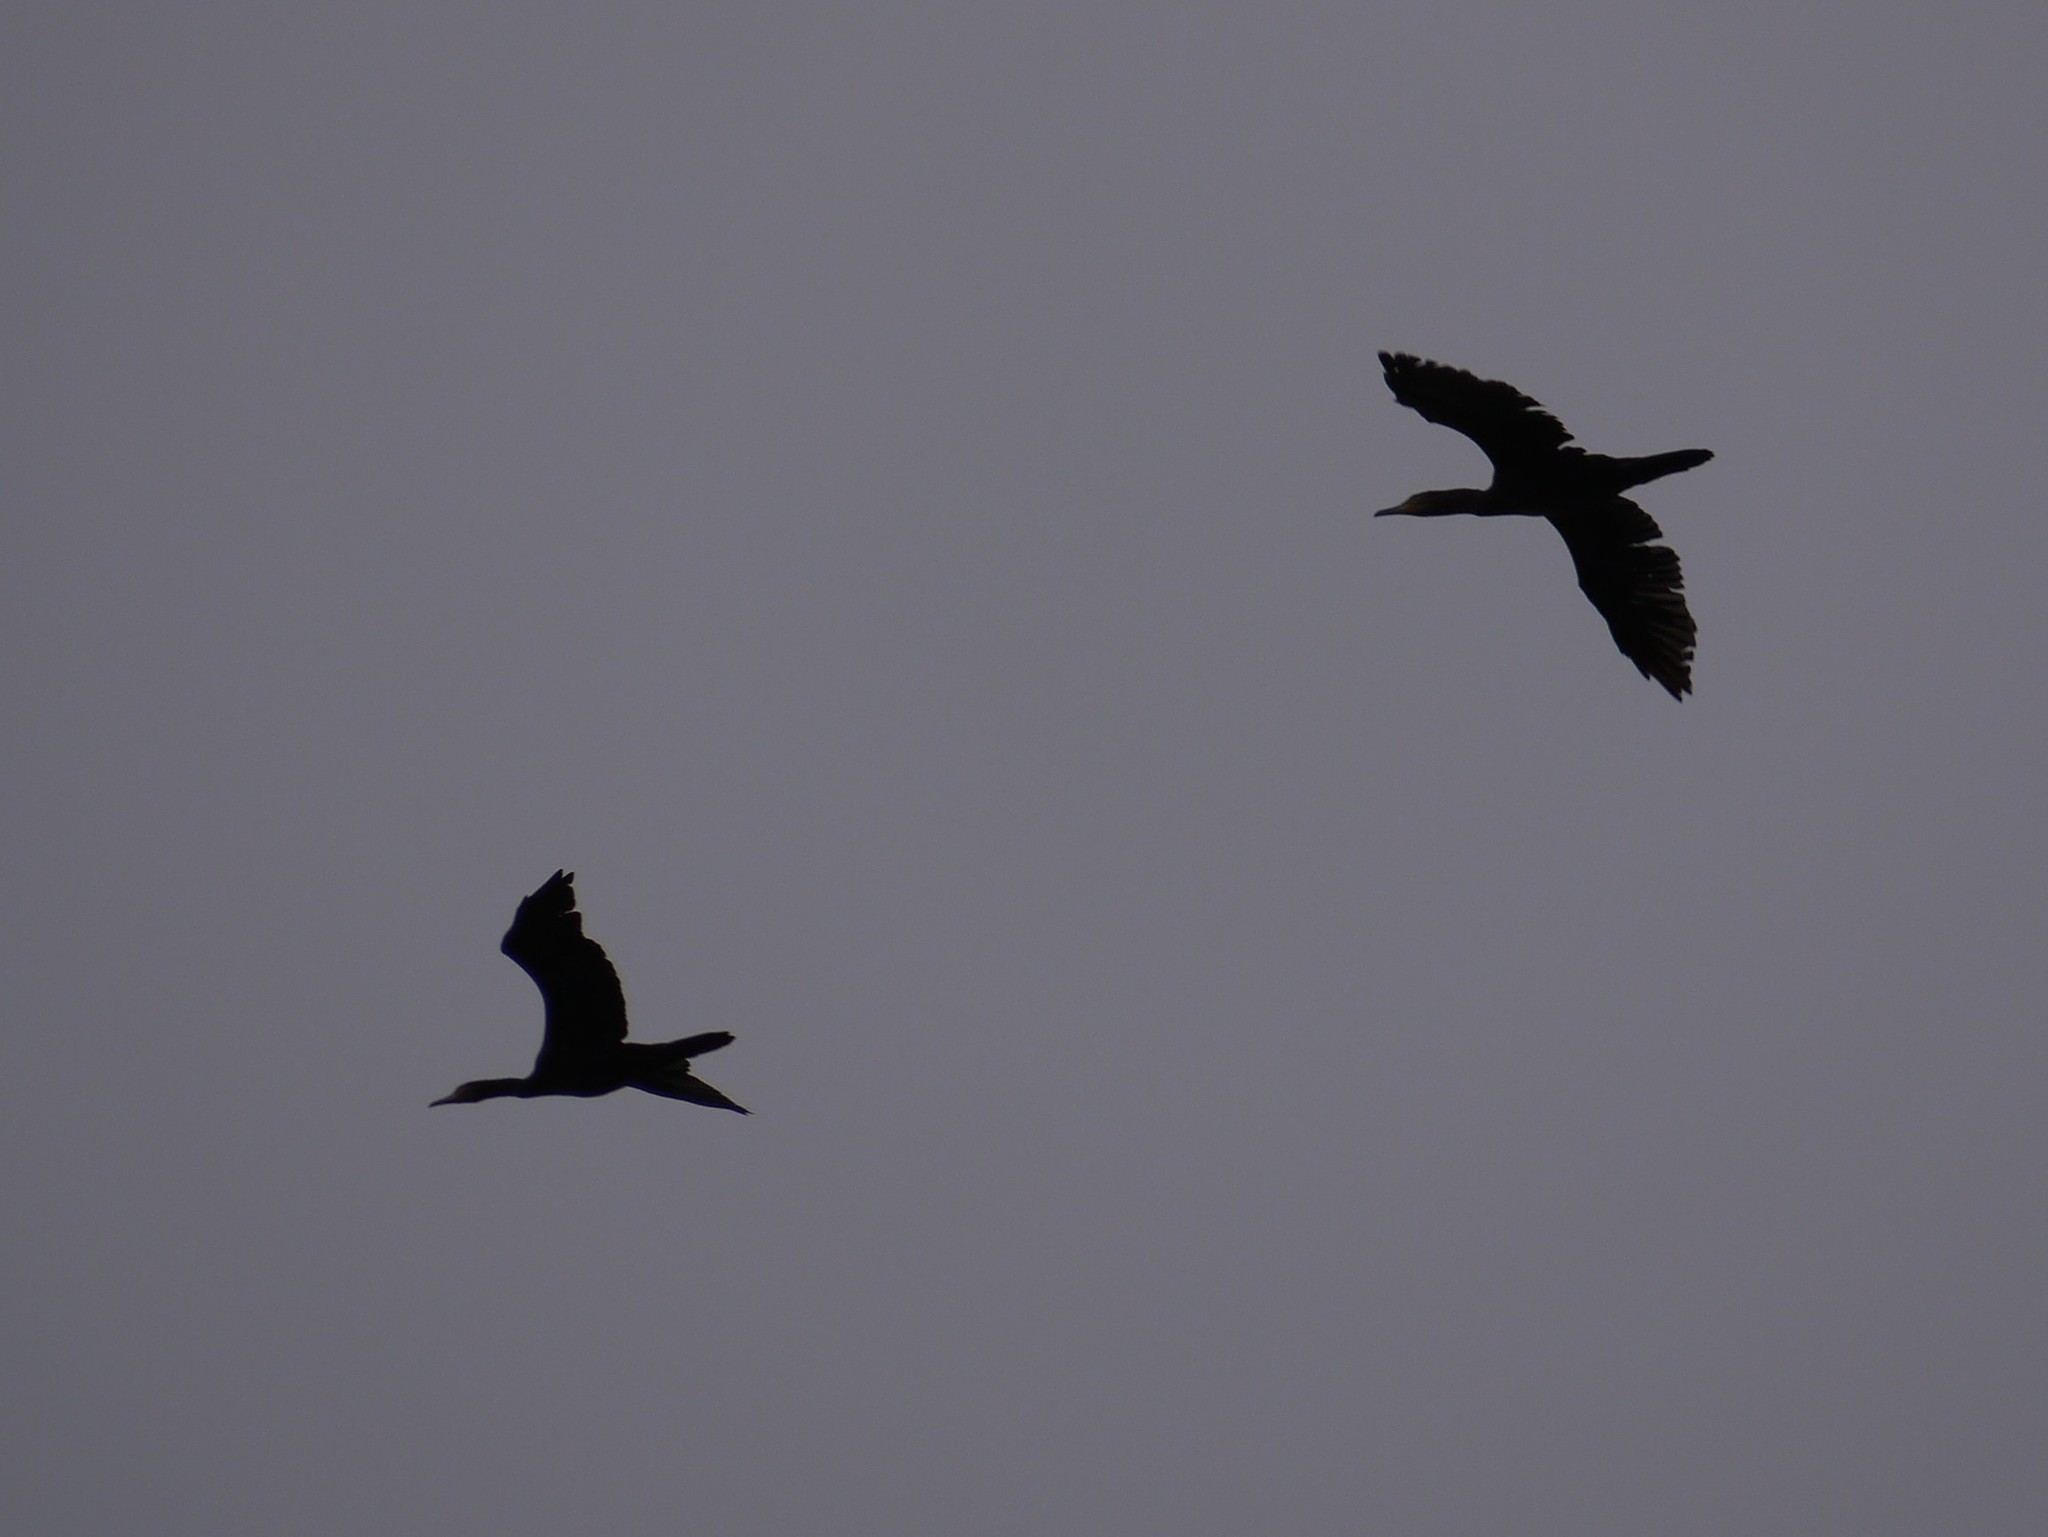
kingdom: Animalia
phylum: Chordata
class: Aves
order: Suliformes
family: Phalacrocoracidae
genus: Phalacrocorax
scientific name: Phalacrocorax carbo
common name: Great cormorant
